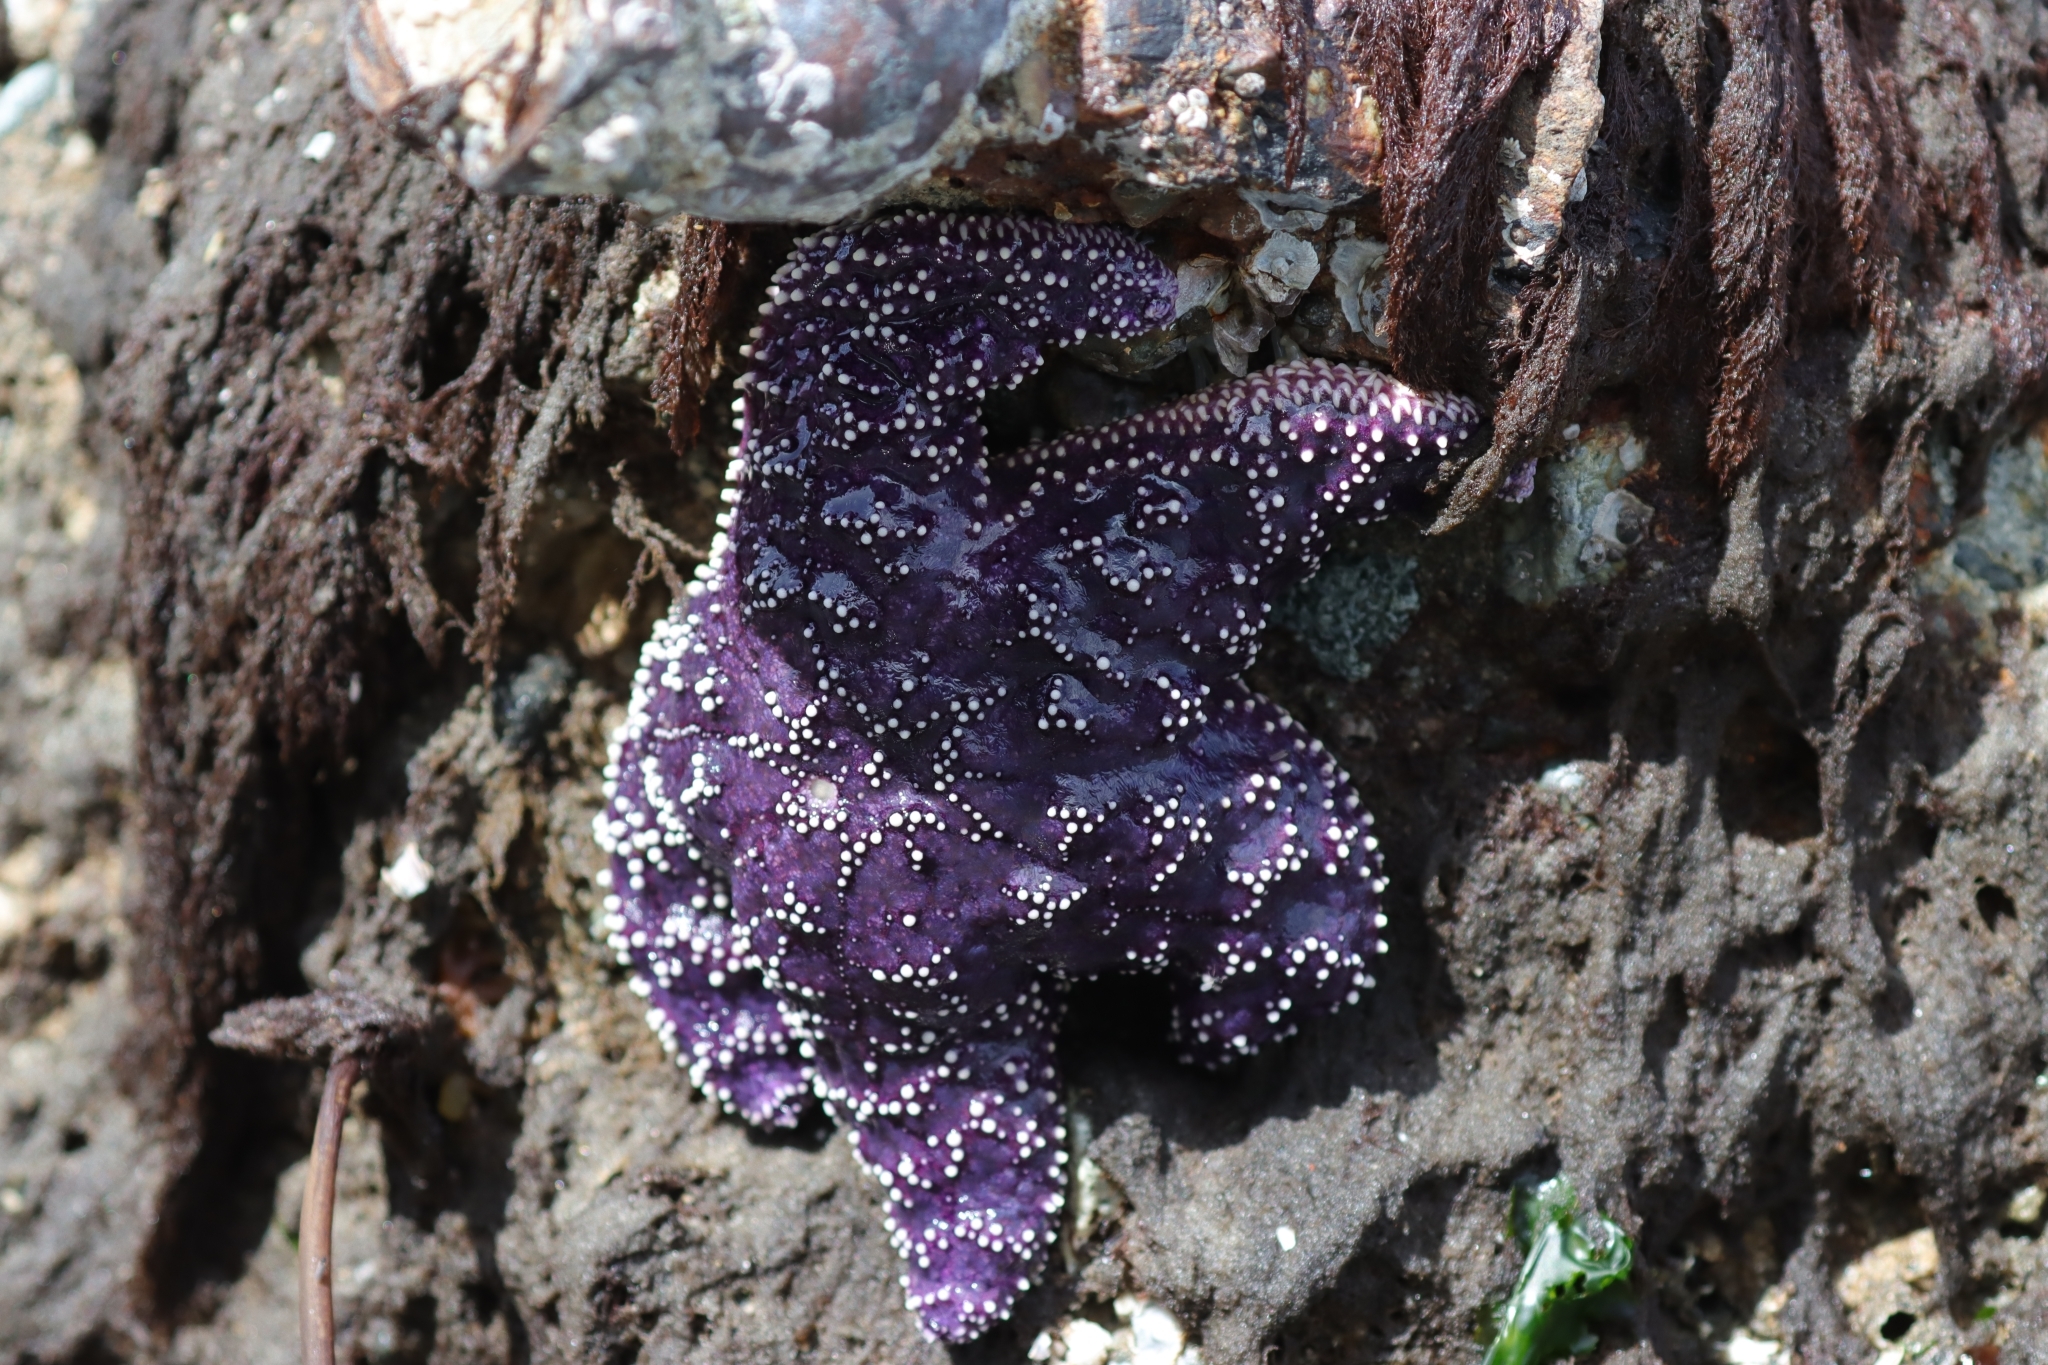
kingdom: Animalia
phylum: Echinodermata
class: Asteroidea
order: Forcipulatida
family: Asteriidae
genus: Pisaster
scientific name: Pisaster ochraceus
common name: Ochre stars
